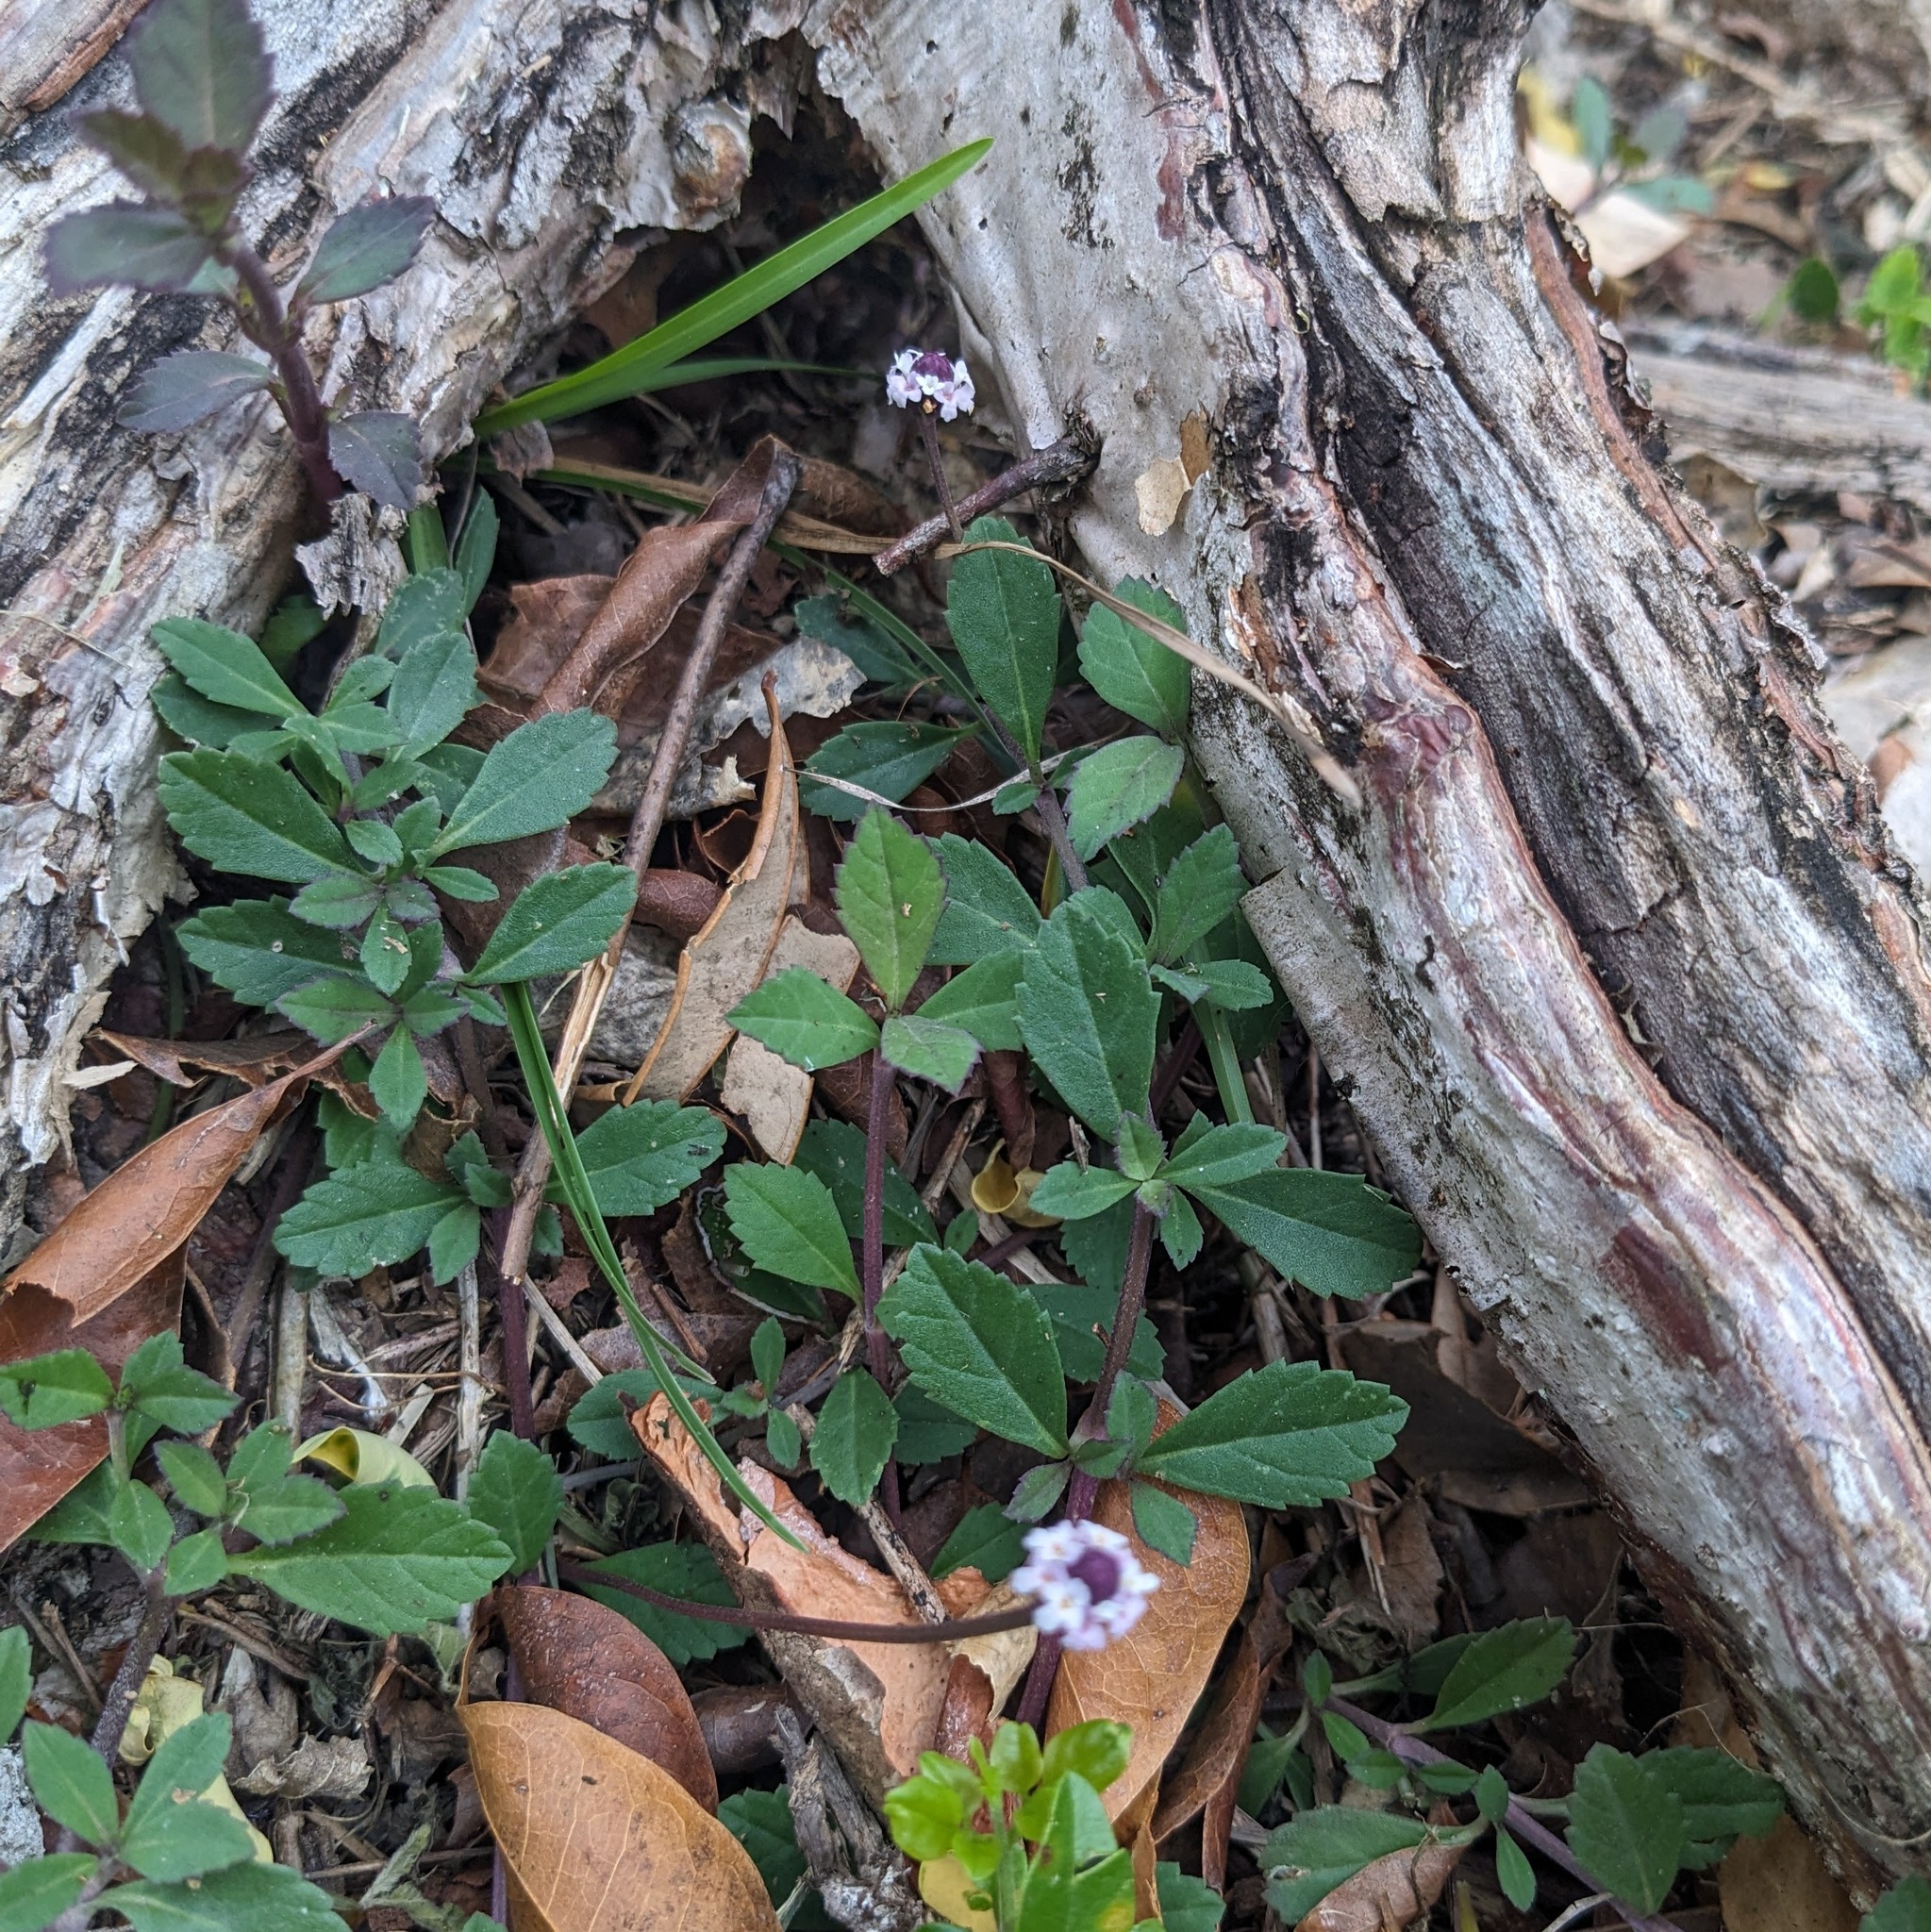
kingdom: Plantae
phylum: Tracheophyta
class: Magnoliopsida
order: Lamiales
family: Verbenaceae
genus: Phyla
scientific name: Phyla nodiflora
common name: Frogfruit
